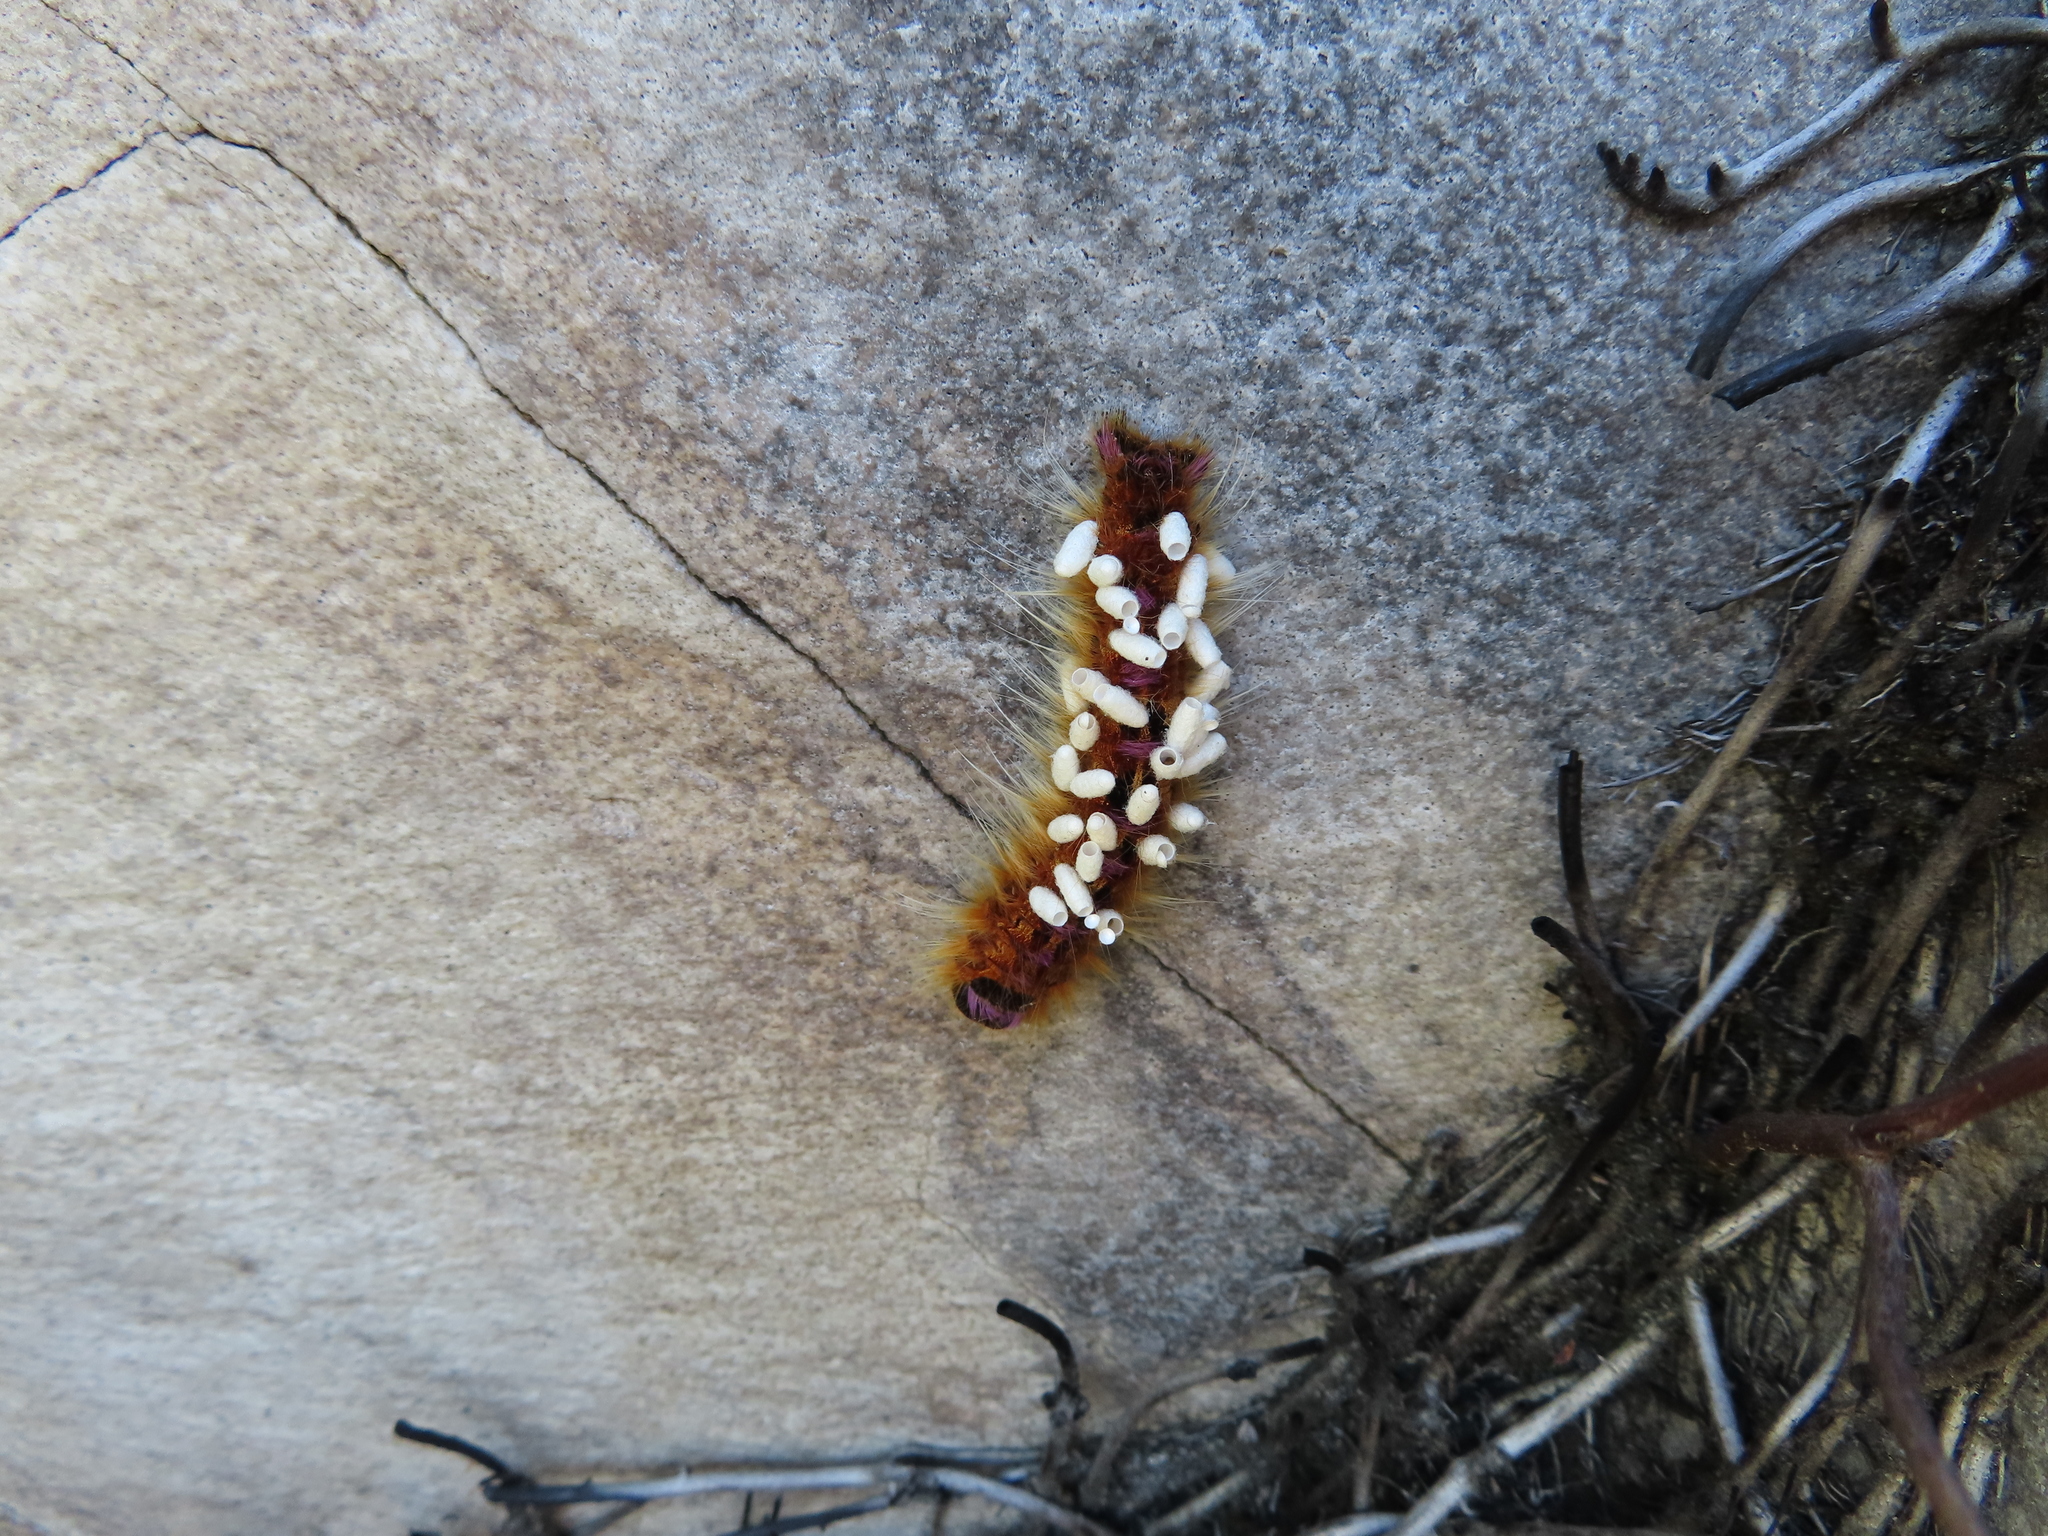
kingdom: Animalia
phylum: Arthropoda
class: Insecta
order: Lepidoptera
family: Lasiocampidae
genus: Eutricha
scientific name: Eutricha bifascia
